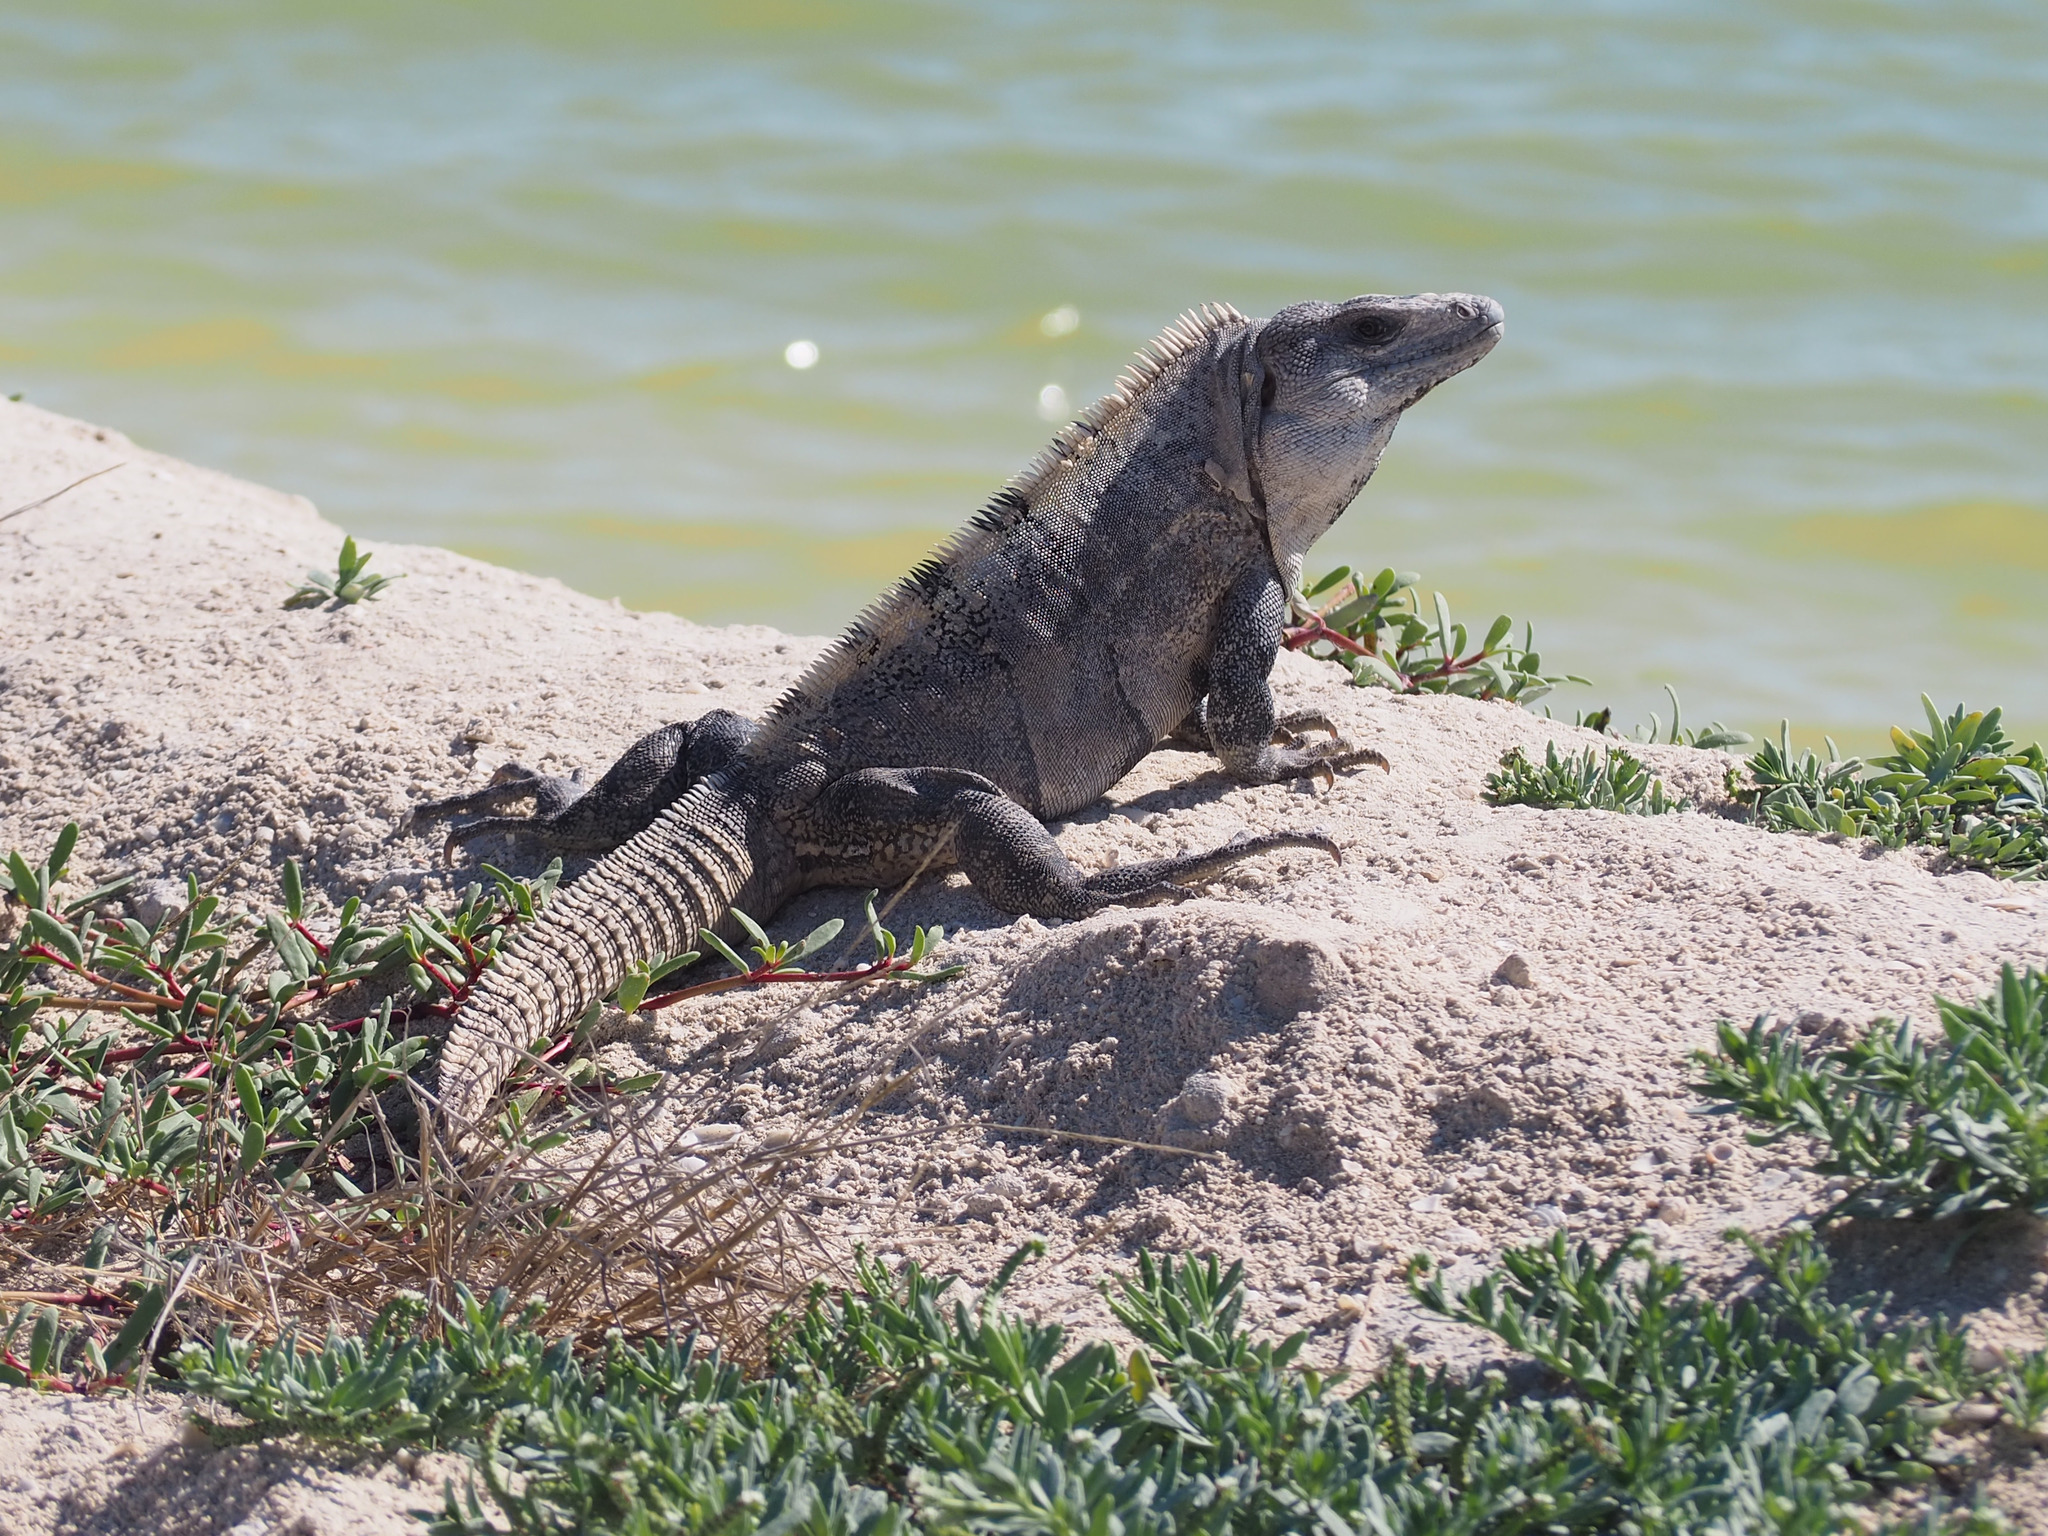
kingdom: Animalia
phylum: Chordata
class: Squamata
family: Iguanidae
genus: Ctenosaura
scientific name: Ctenosaura similis
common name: Black spiny-tailed iguana
